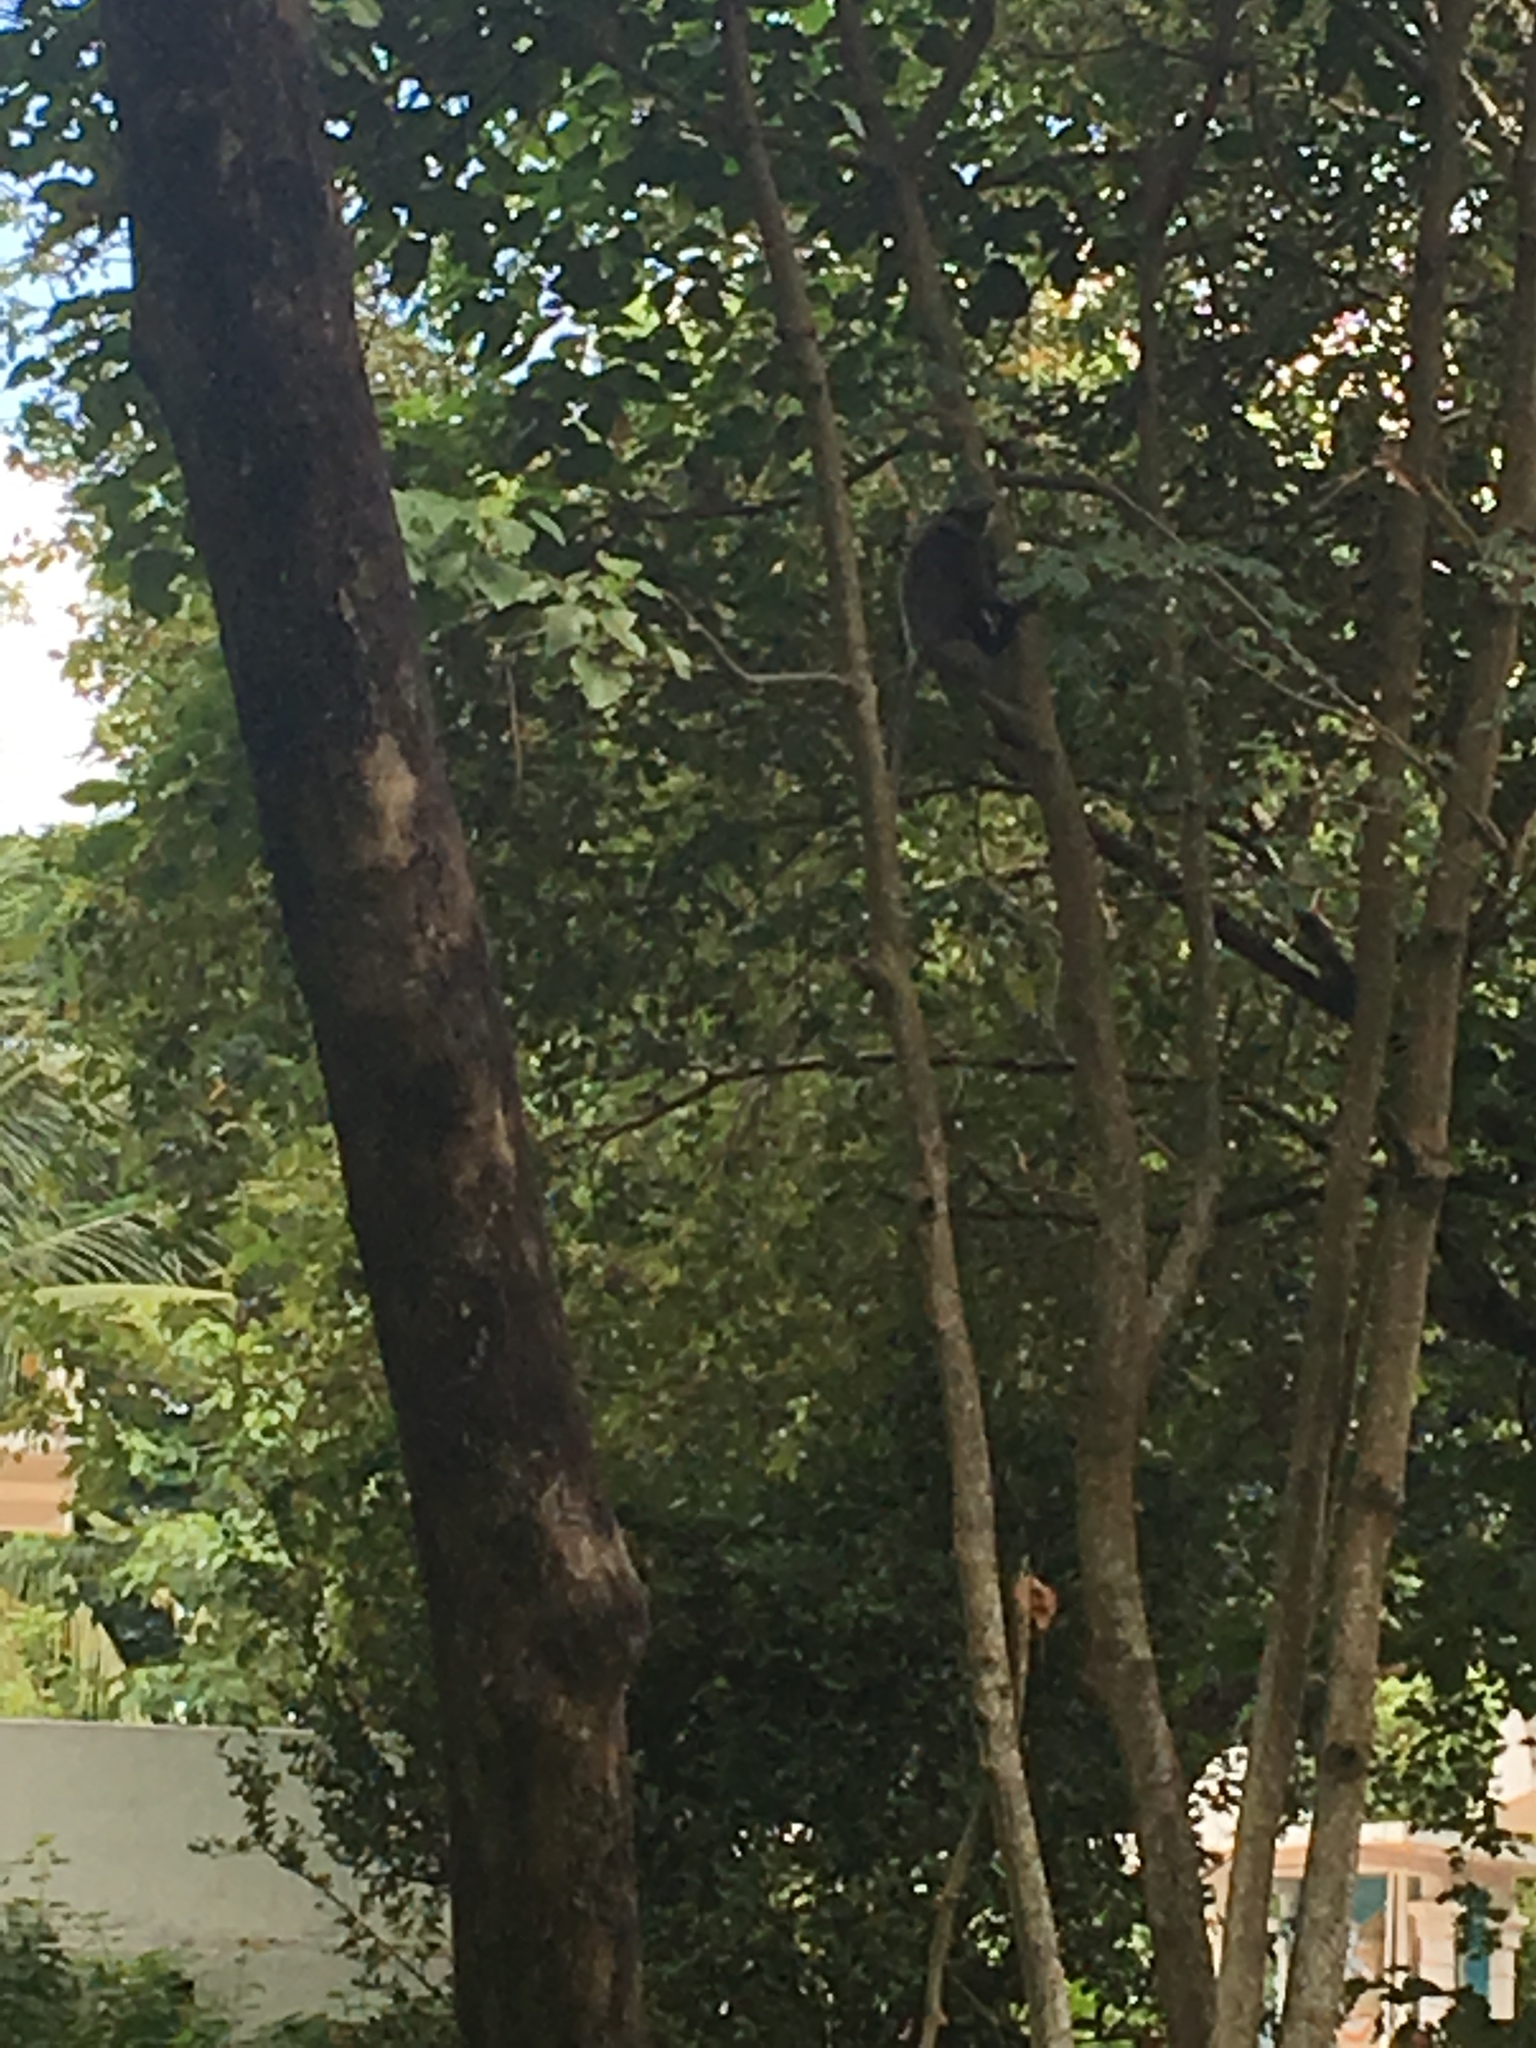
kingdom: Animalia
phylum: Chordata
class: Mammalia
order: Primates
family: Cercopithecidae
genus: Semnopithecus
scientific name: Semnopithecus vetulus
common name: Purple-faced langur
